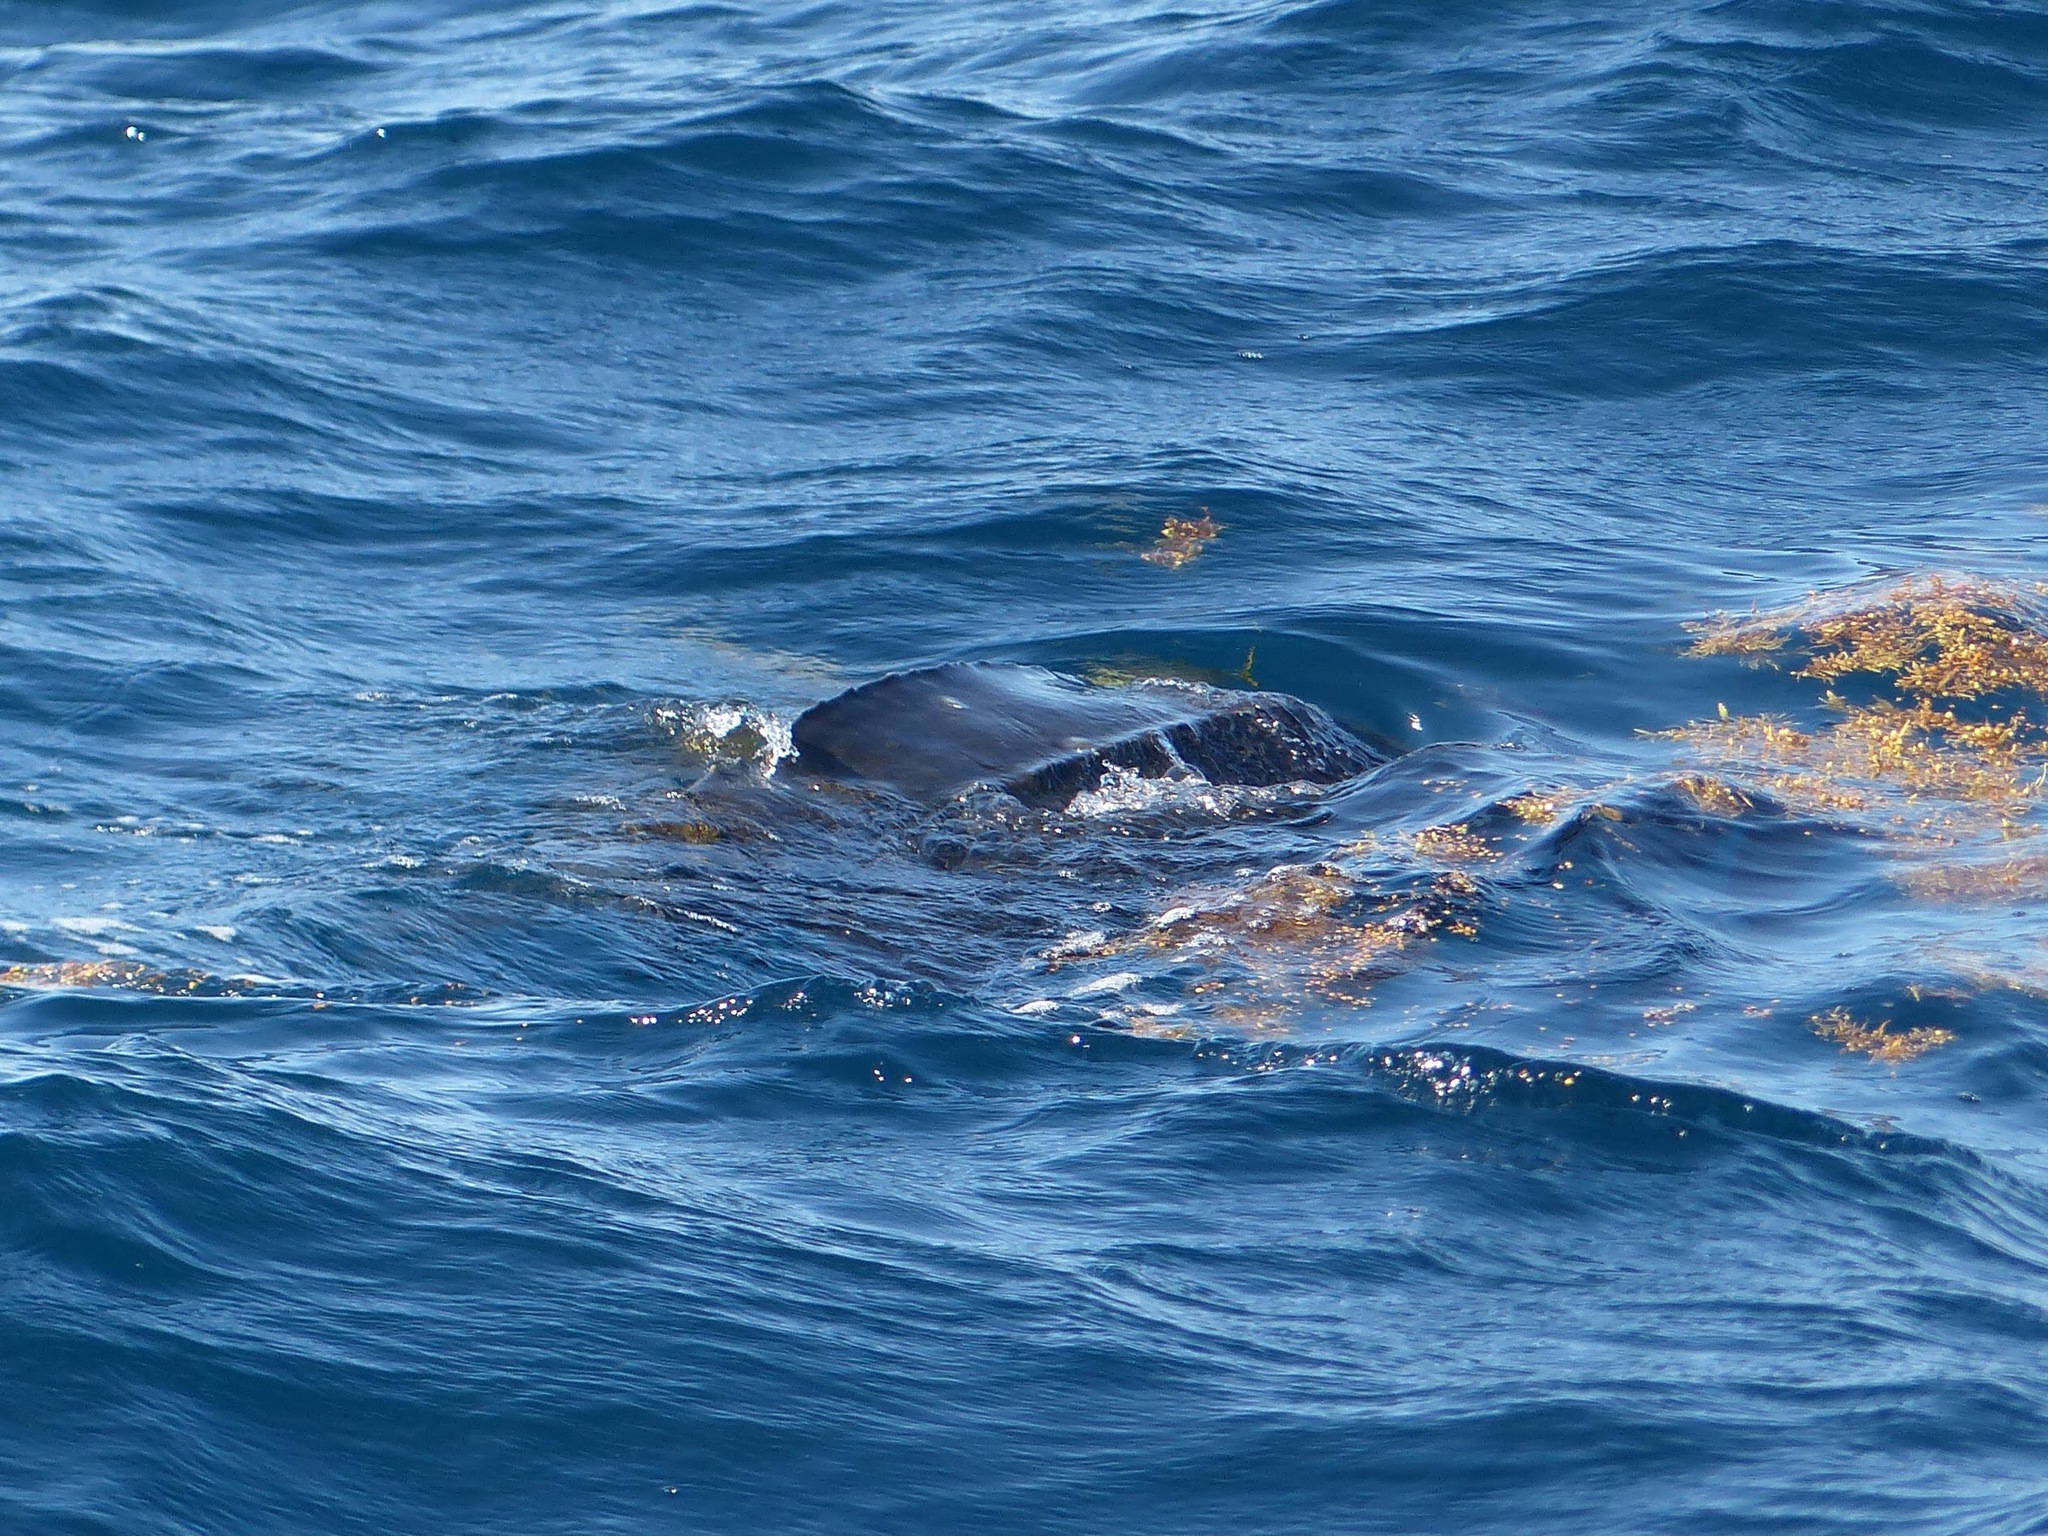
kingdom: Animalia
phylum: Chordata
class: Testudines
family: Dermochelyidae
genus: Dermochelys
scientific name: Dermochelys coriacea
